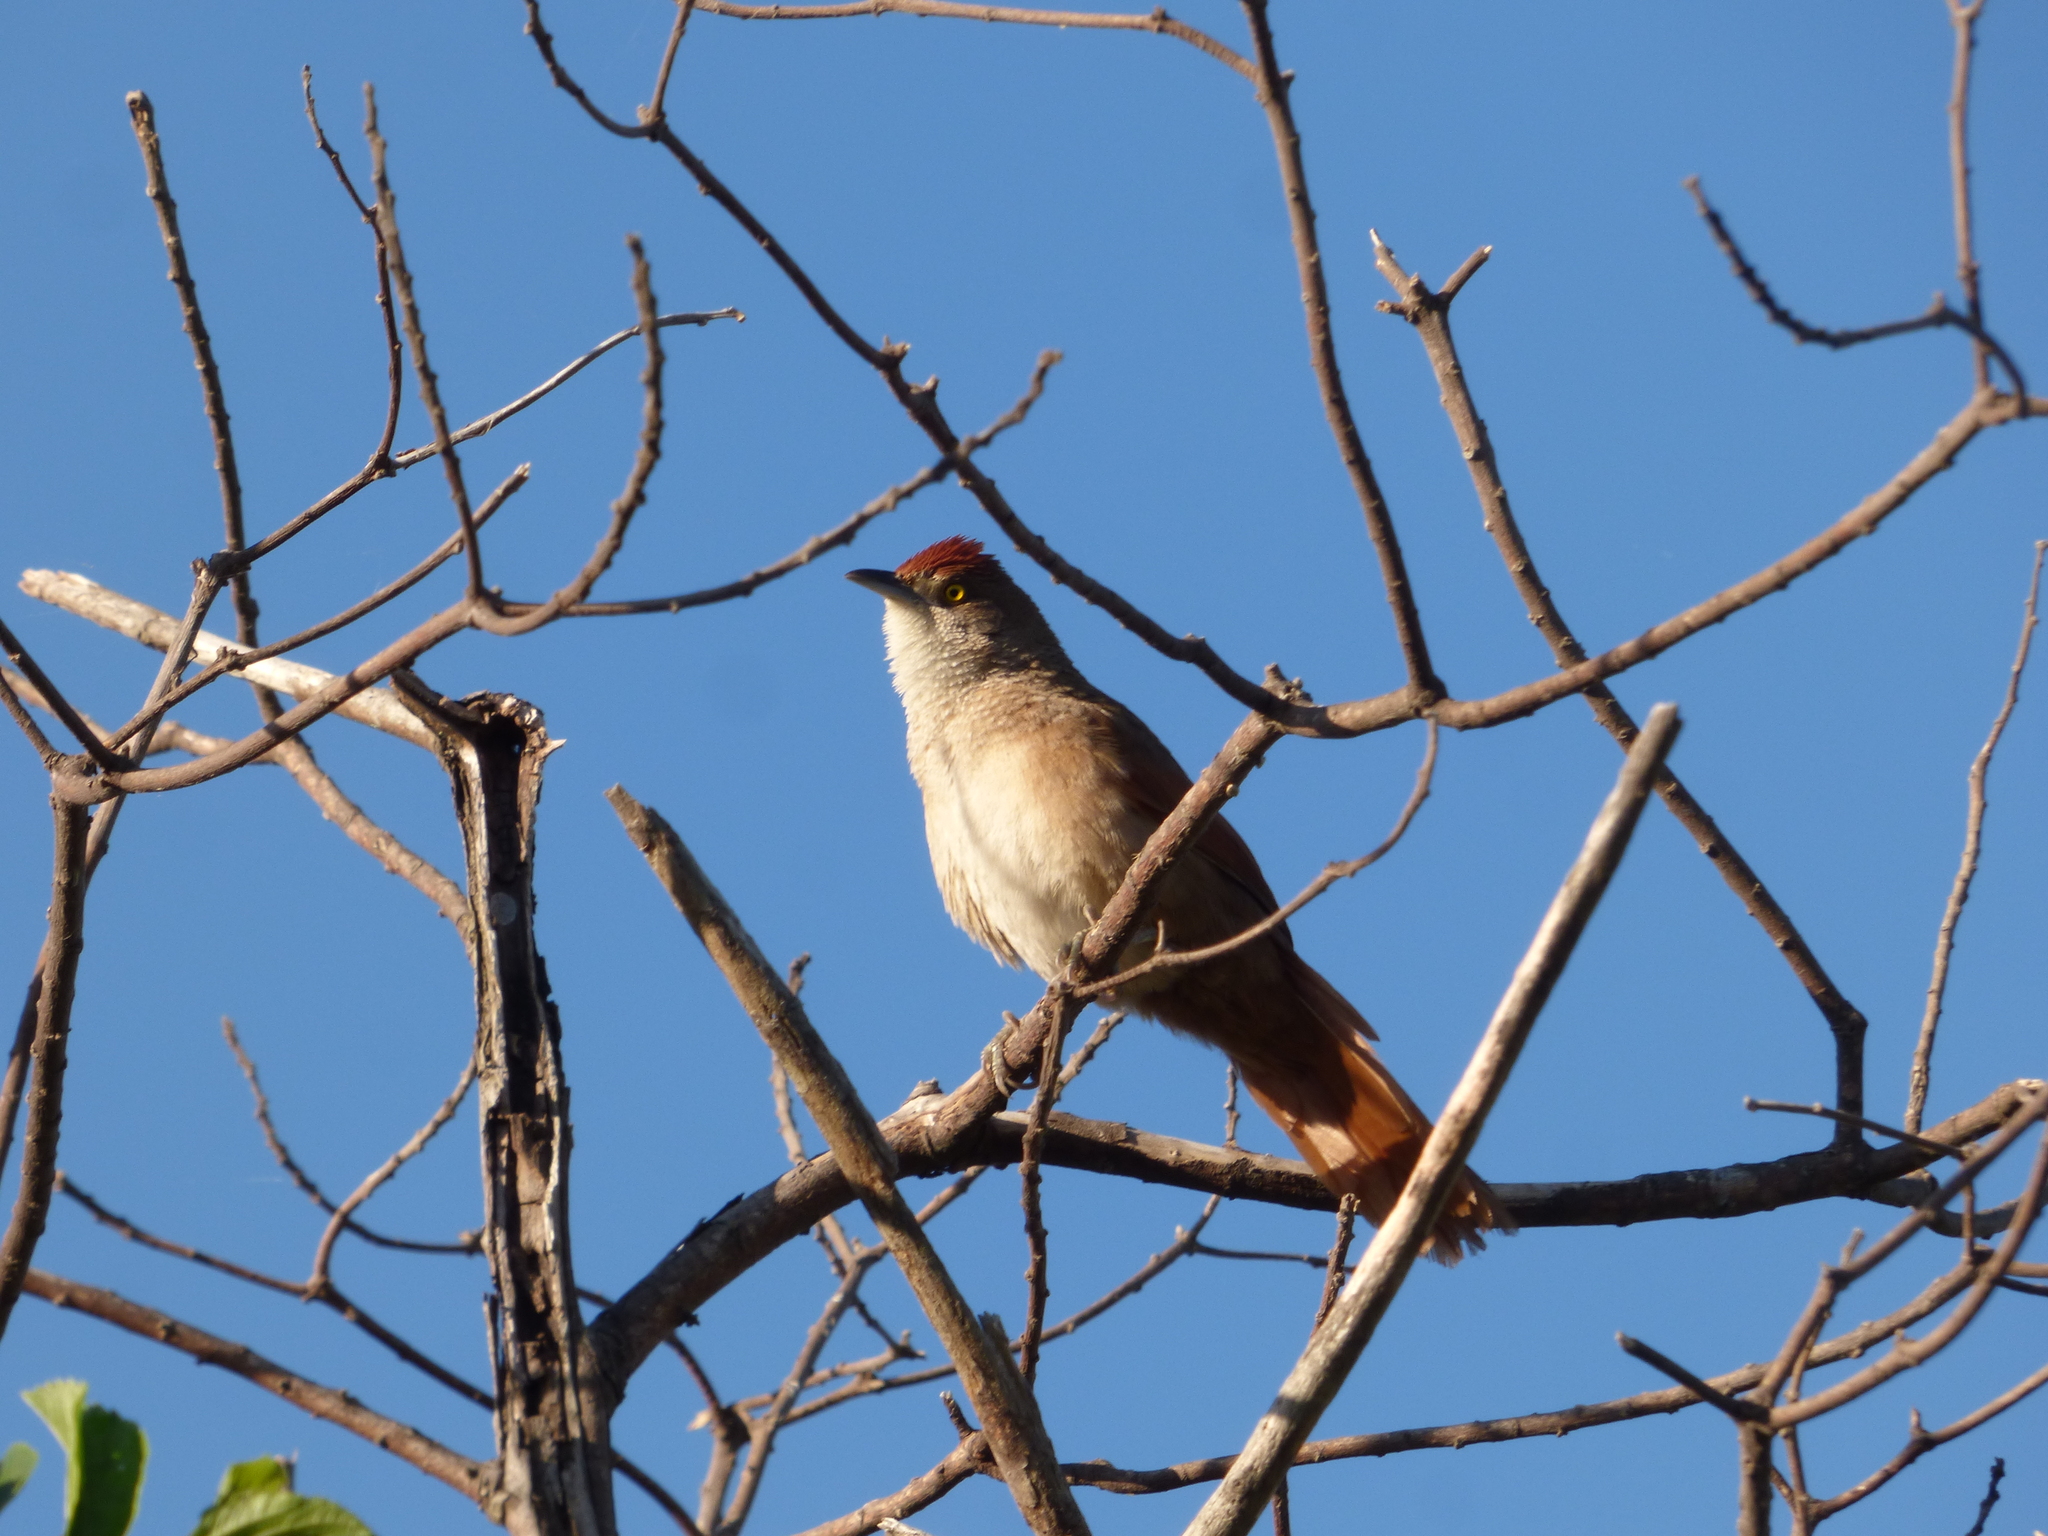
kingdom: Animalia
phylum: Chordata
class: Aves
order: Passeriformes
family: Furnariidae
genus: Phacellodomus
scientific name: Phacellodomus ruber
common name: Greater thornbird
